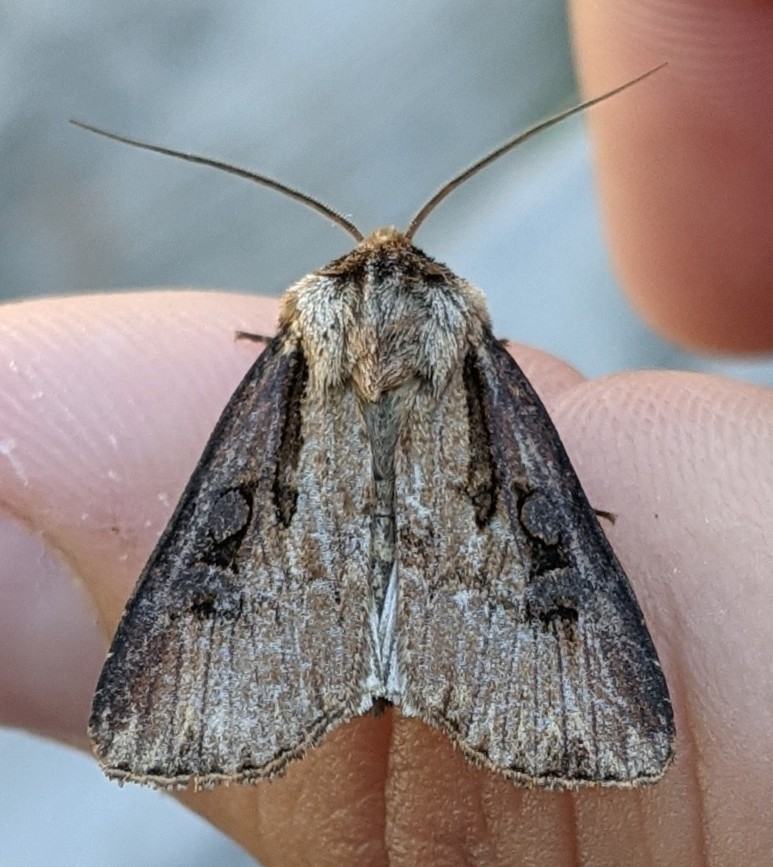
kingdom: Animalia
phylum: Arthropoda
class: Insecta
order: Lepidoptera
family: Noctuidae
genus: Agrotis
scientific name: Agrotis volubilis
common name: Voluble dart
